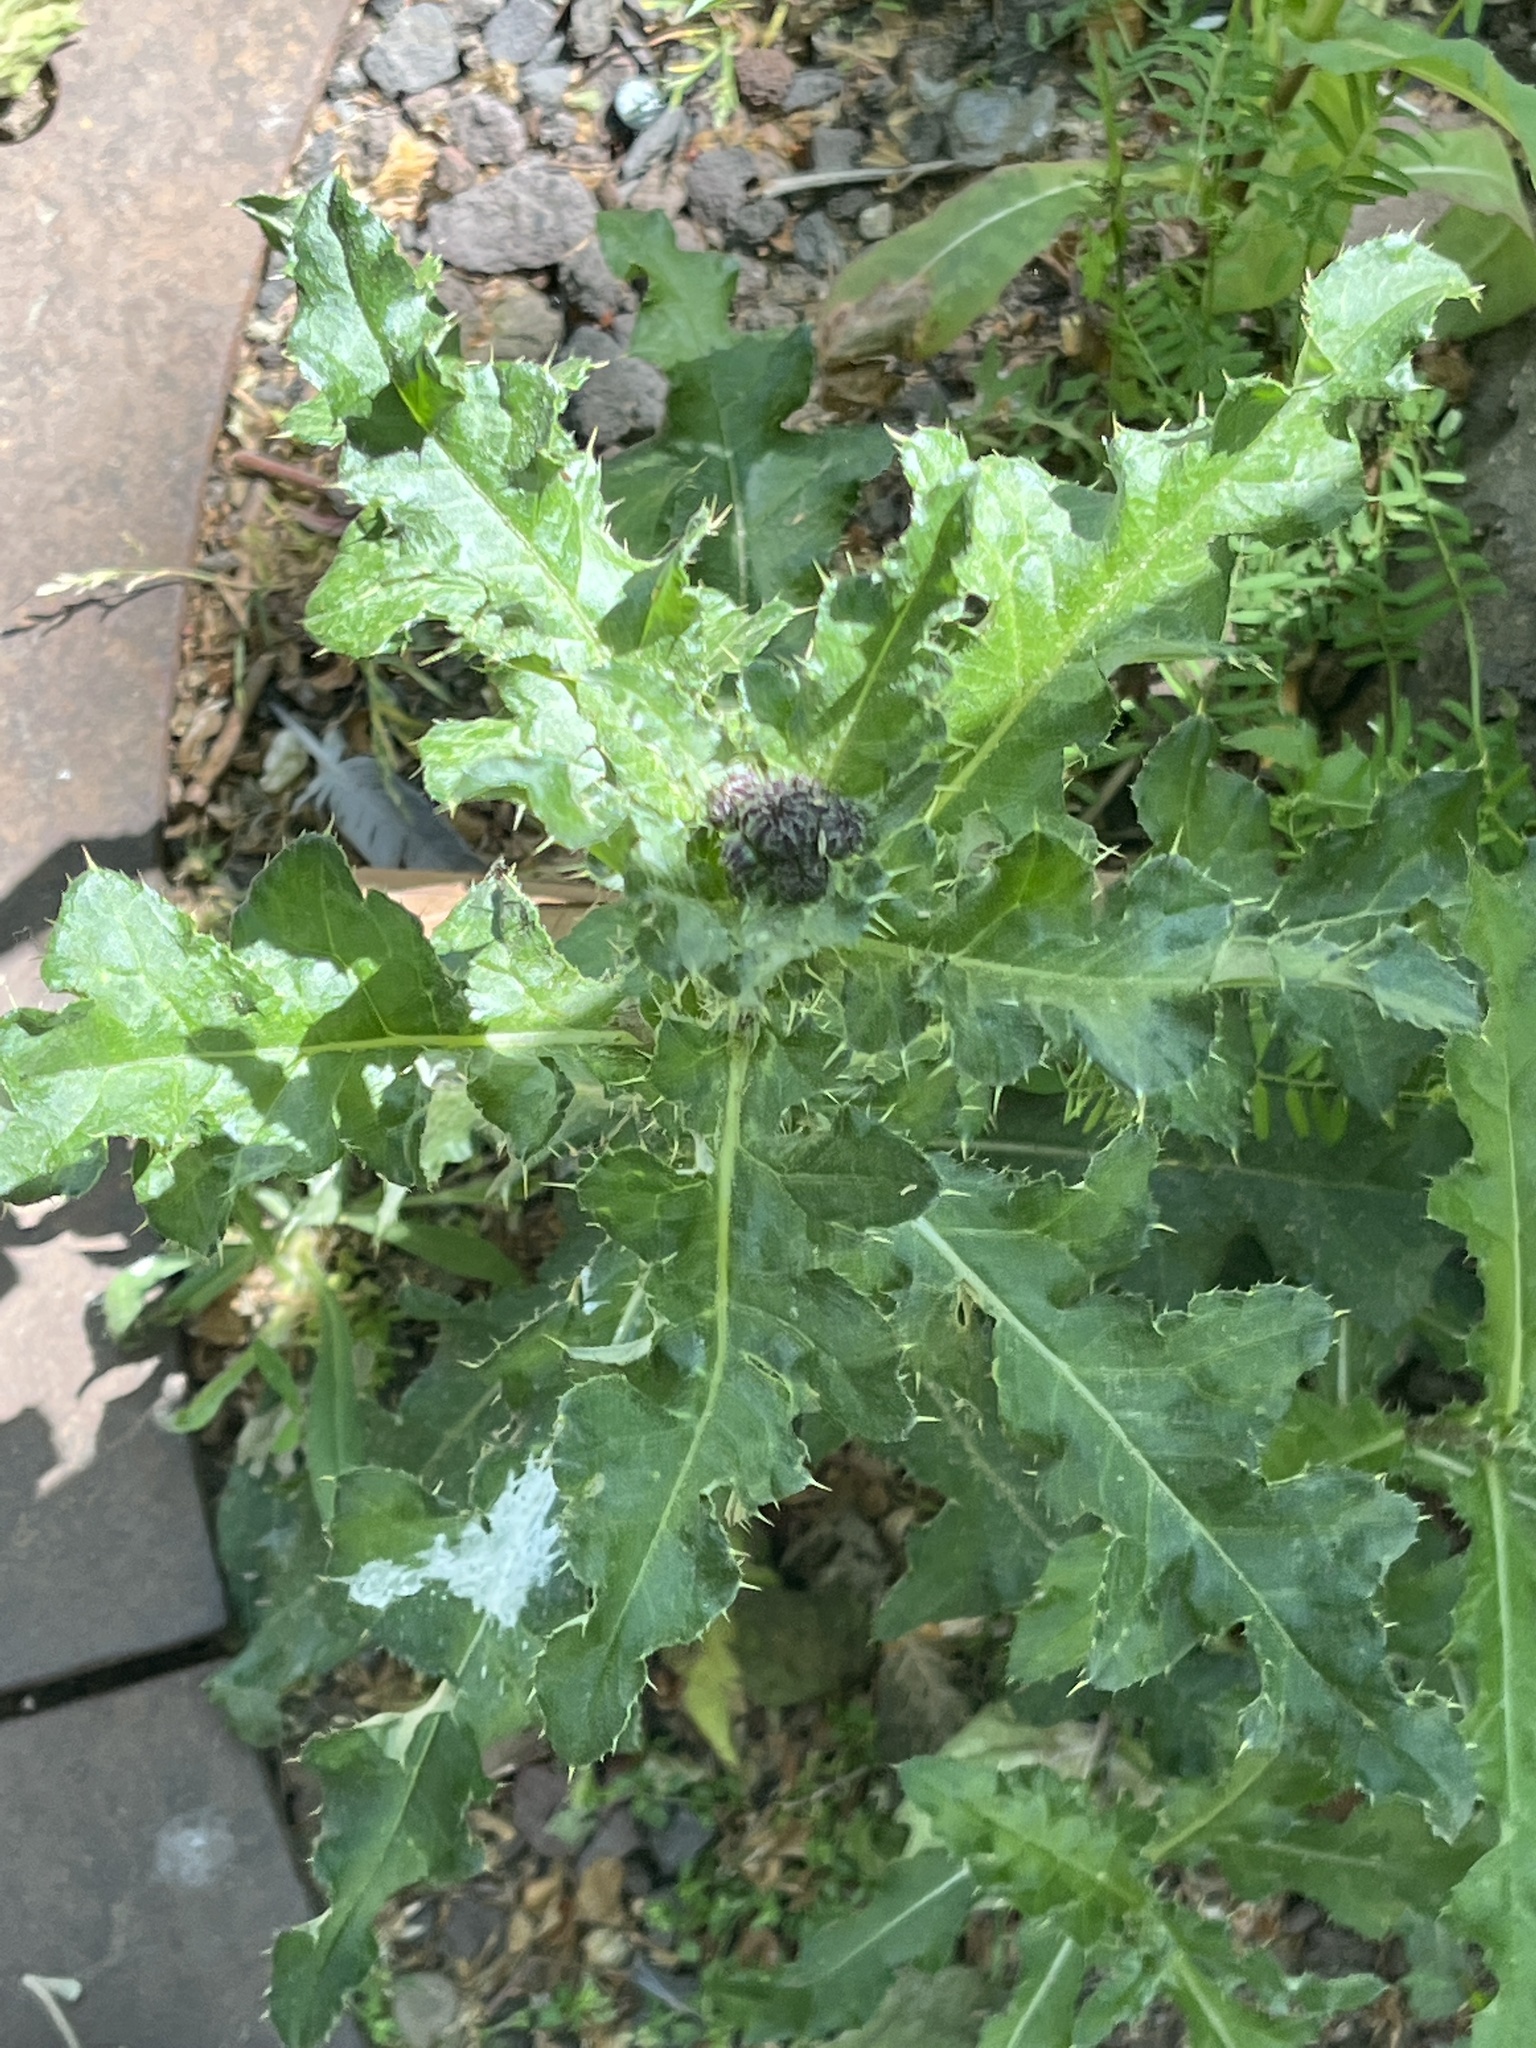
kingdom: Plantae
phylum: Tracheophyta
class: Magnoliopsida
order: Asterales
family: Asteraceae
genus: Cirsium
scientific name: Cirsium arvense
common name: Creeping thistle
